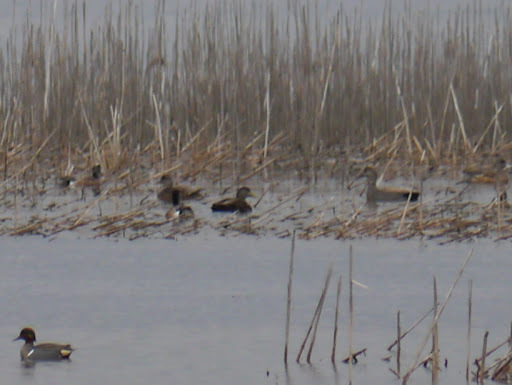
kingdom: Animalia
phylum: Chordata
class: Aves
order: Anseriformes
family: Anatidae
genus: Mareca
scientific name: Mareca strepera
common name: Gadwall
